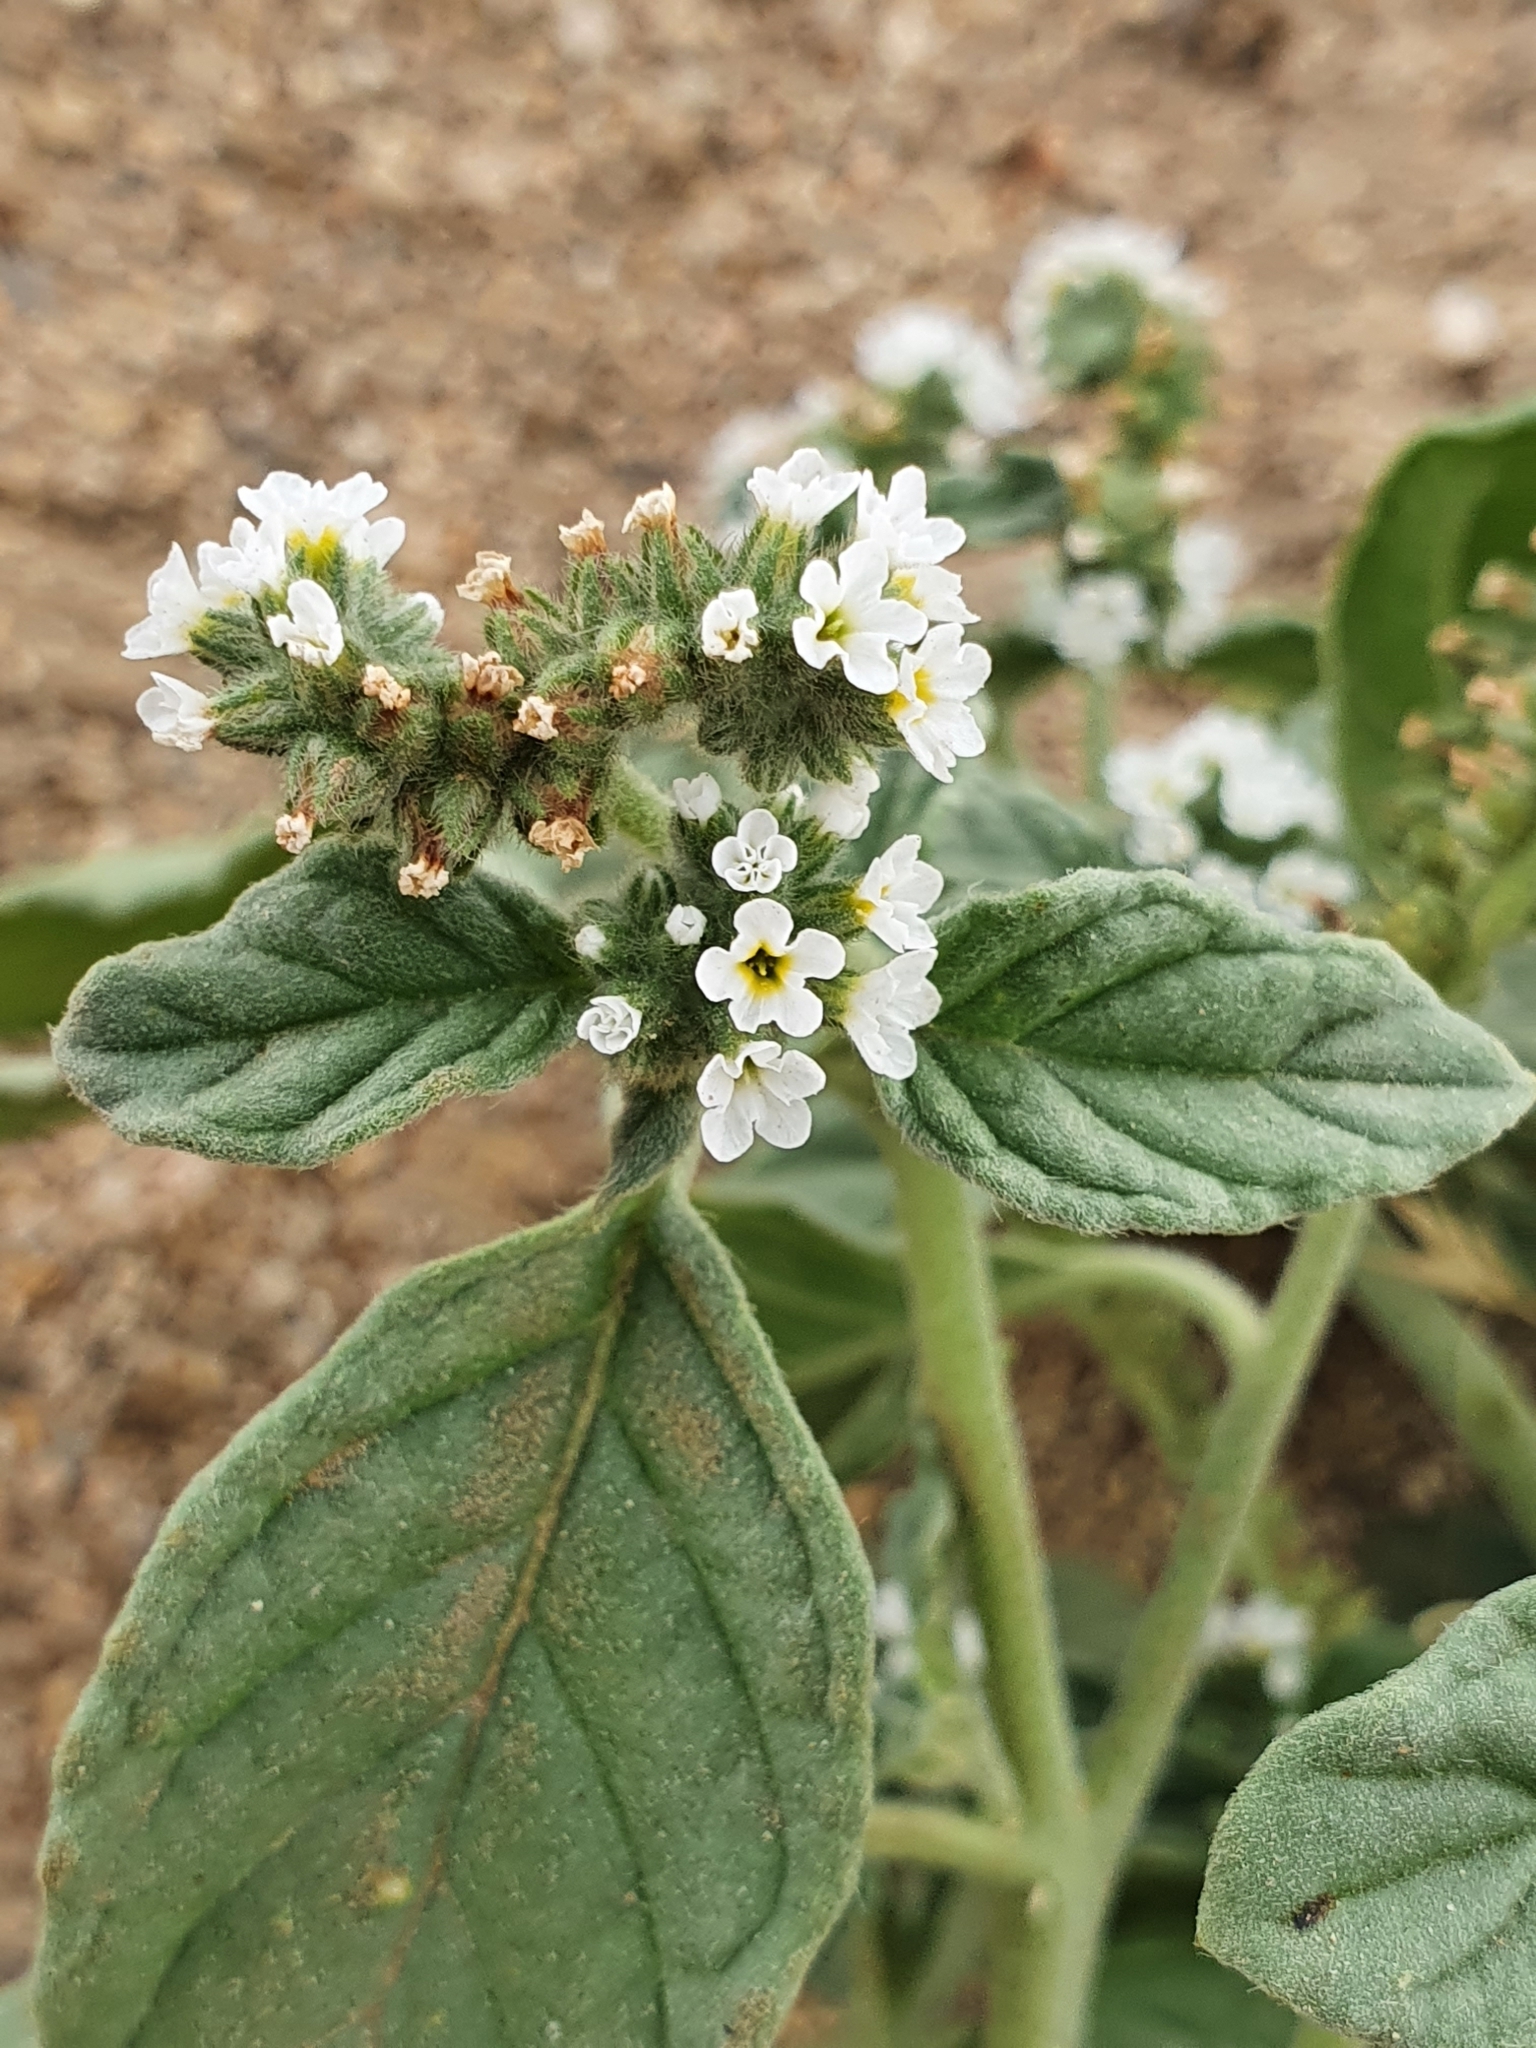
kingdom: Plantae
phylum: Tracheophyta
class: Magnoliopsida
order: Boraginales
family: Heliotropiaceae
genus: Heliotropium
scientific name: Heliotropium europaeum
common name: European heliotrope
